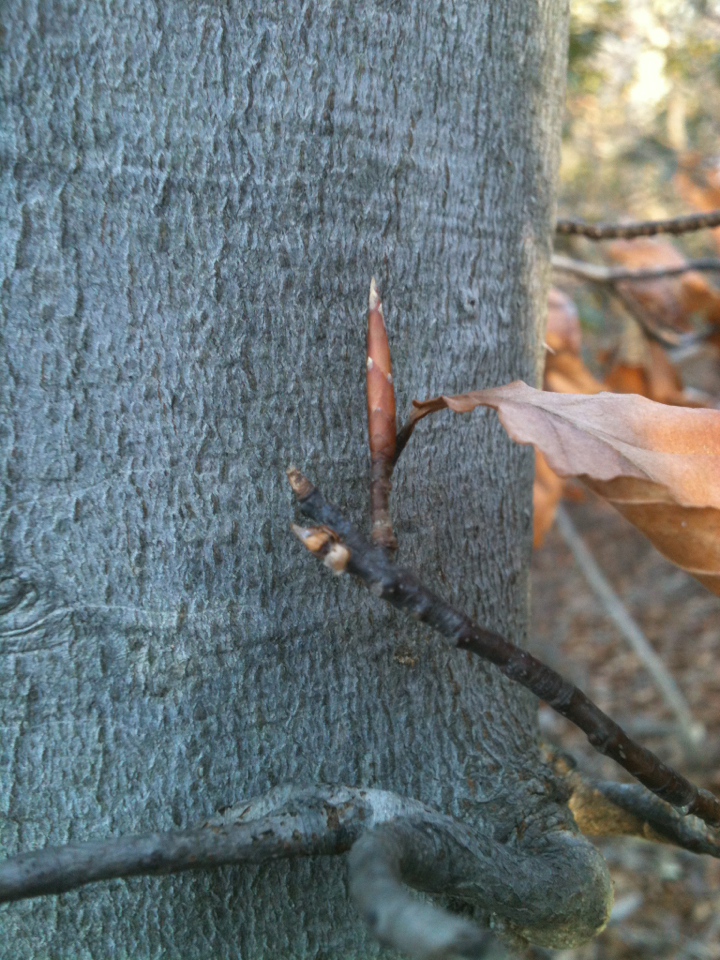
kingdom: Plantae
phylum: Tracheophyta
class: Magnoliopsida
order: Fagales
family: Fagaceae
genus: Fagus
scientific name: Fagus grandifolia
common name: American beech
